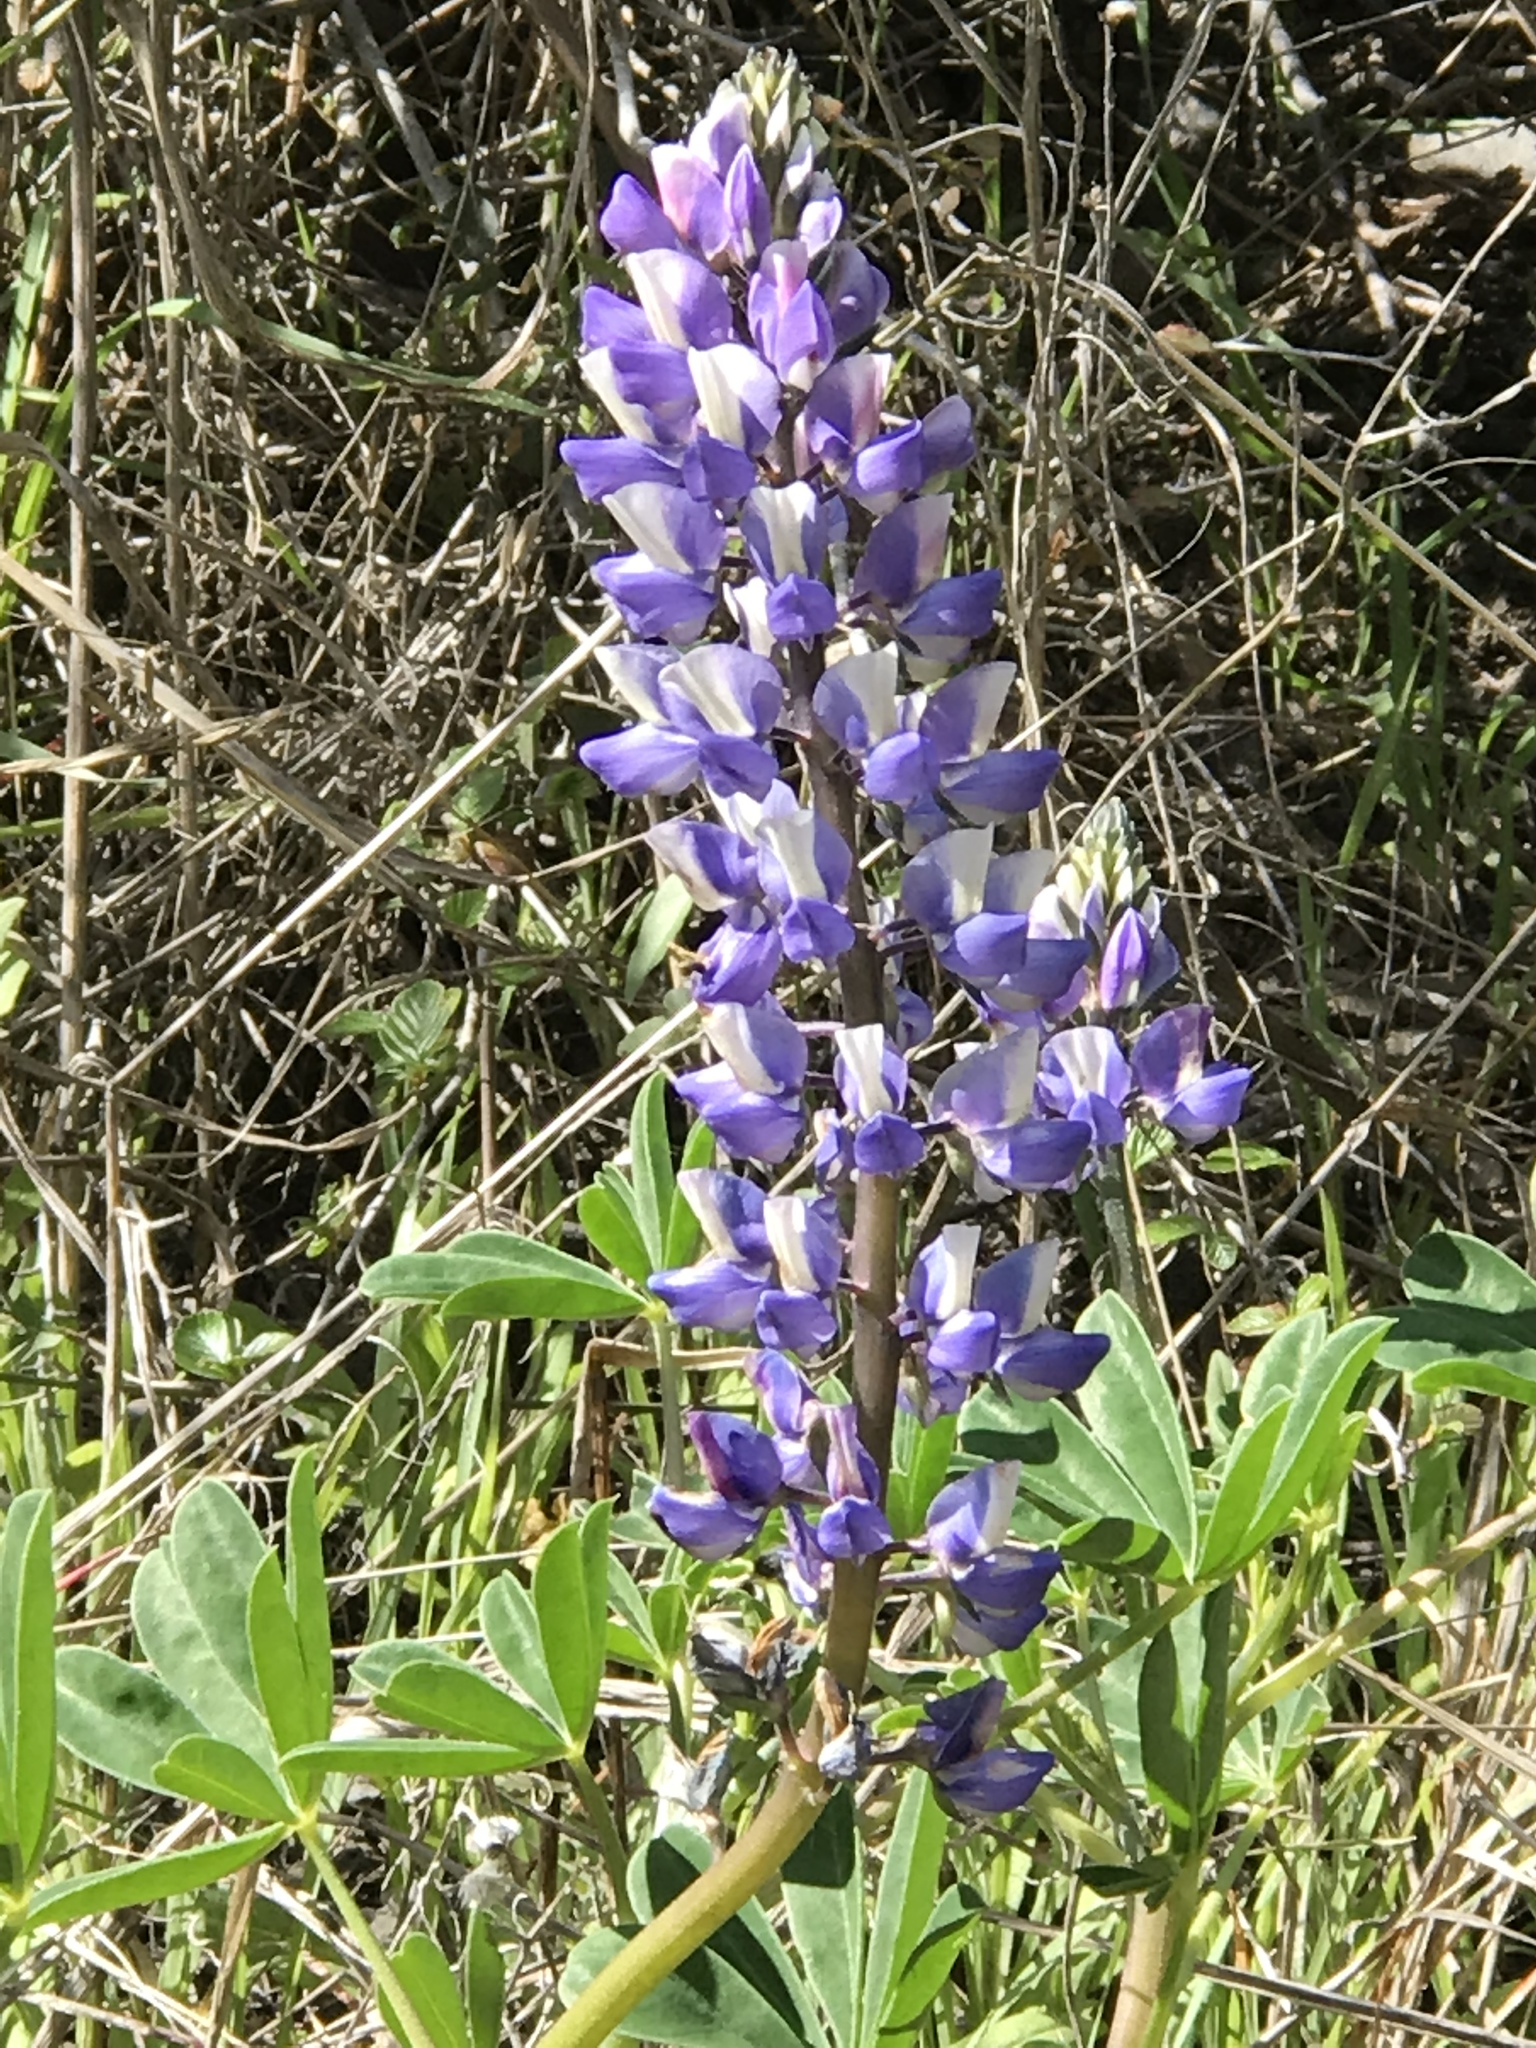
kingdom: Plantae
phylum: Tracheophyta
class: Magnoliopsida
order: Fabales
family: Fabaceae
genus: Lupinus
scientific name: Lupinus succulentus
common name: Arroyo lupine
